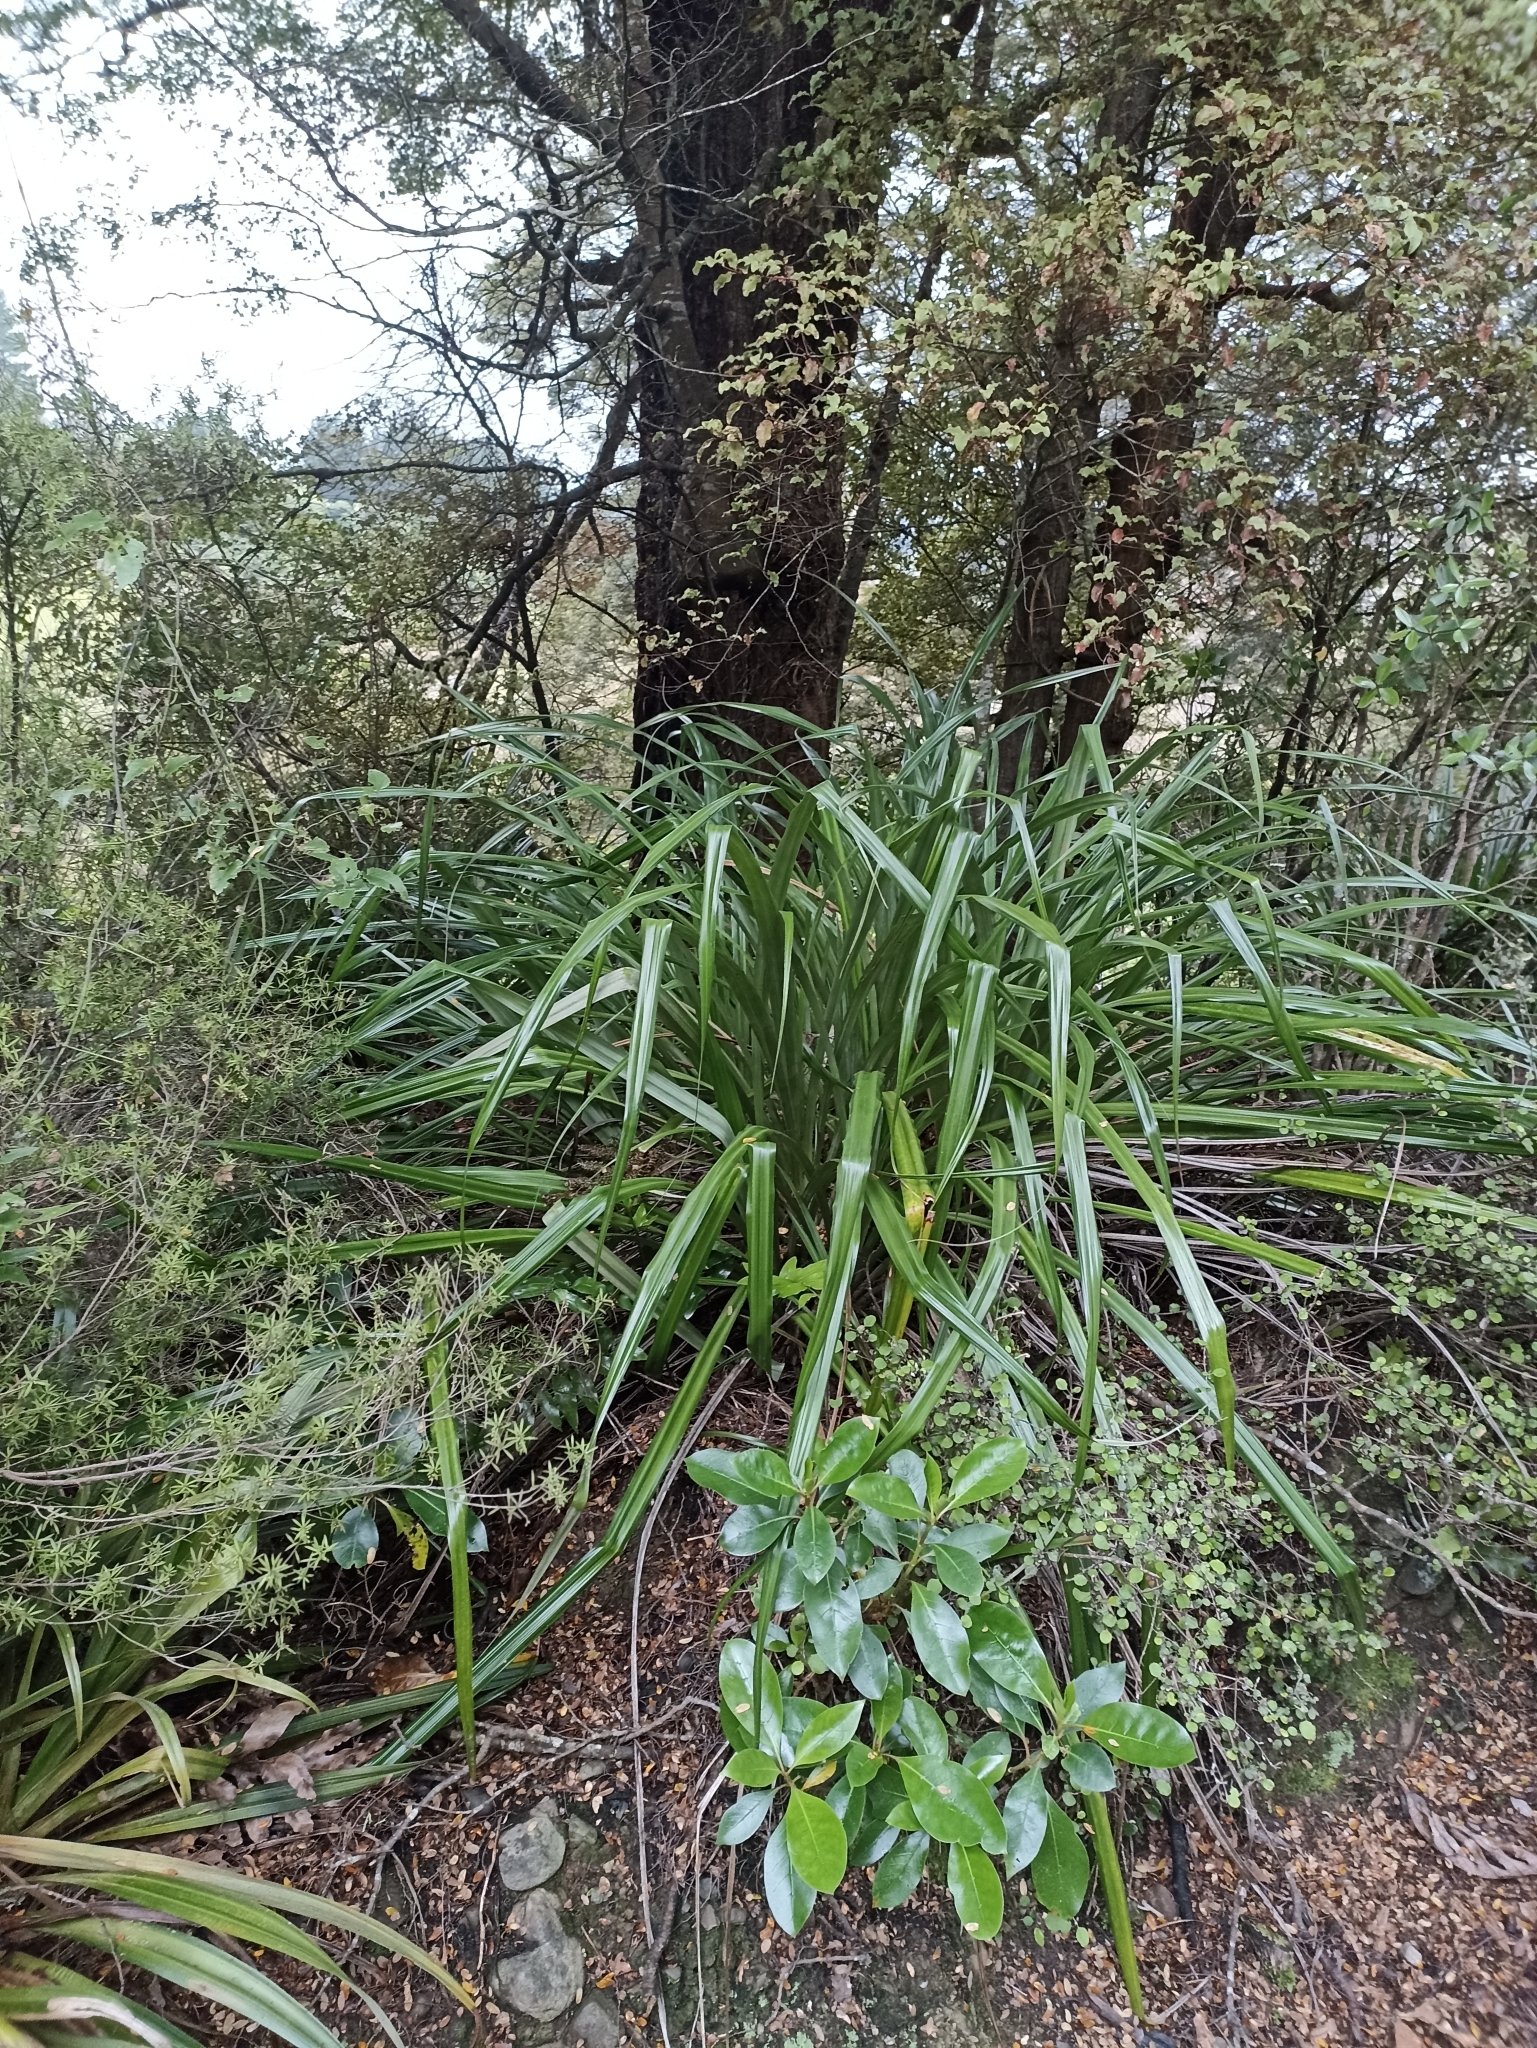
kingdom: Plantae
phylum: Tracheophyta
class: Liliopsida
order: Asparagales
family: Asteliaceae
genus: Astelia
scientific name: Astelia fragrans
